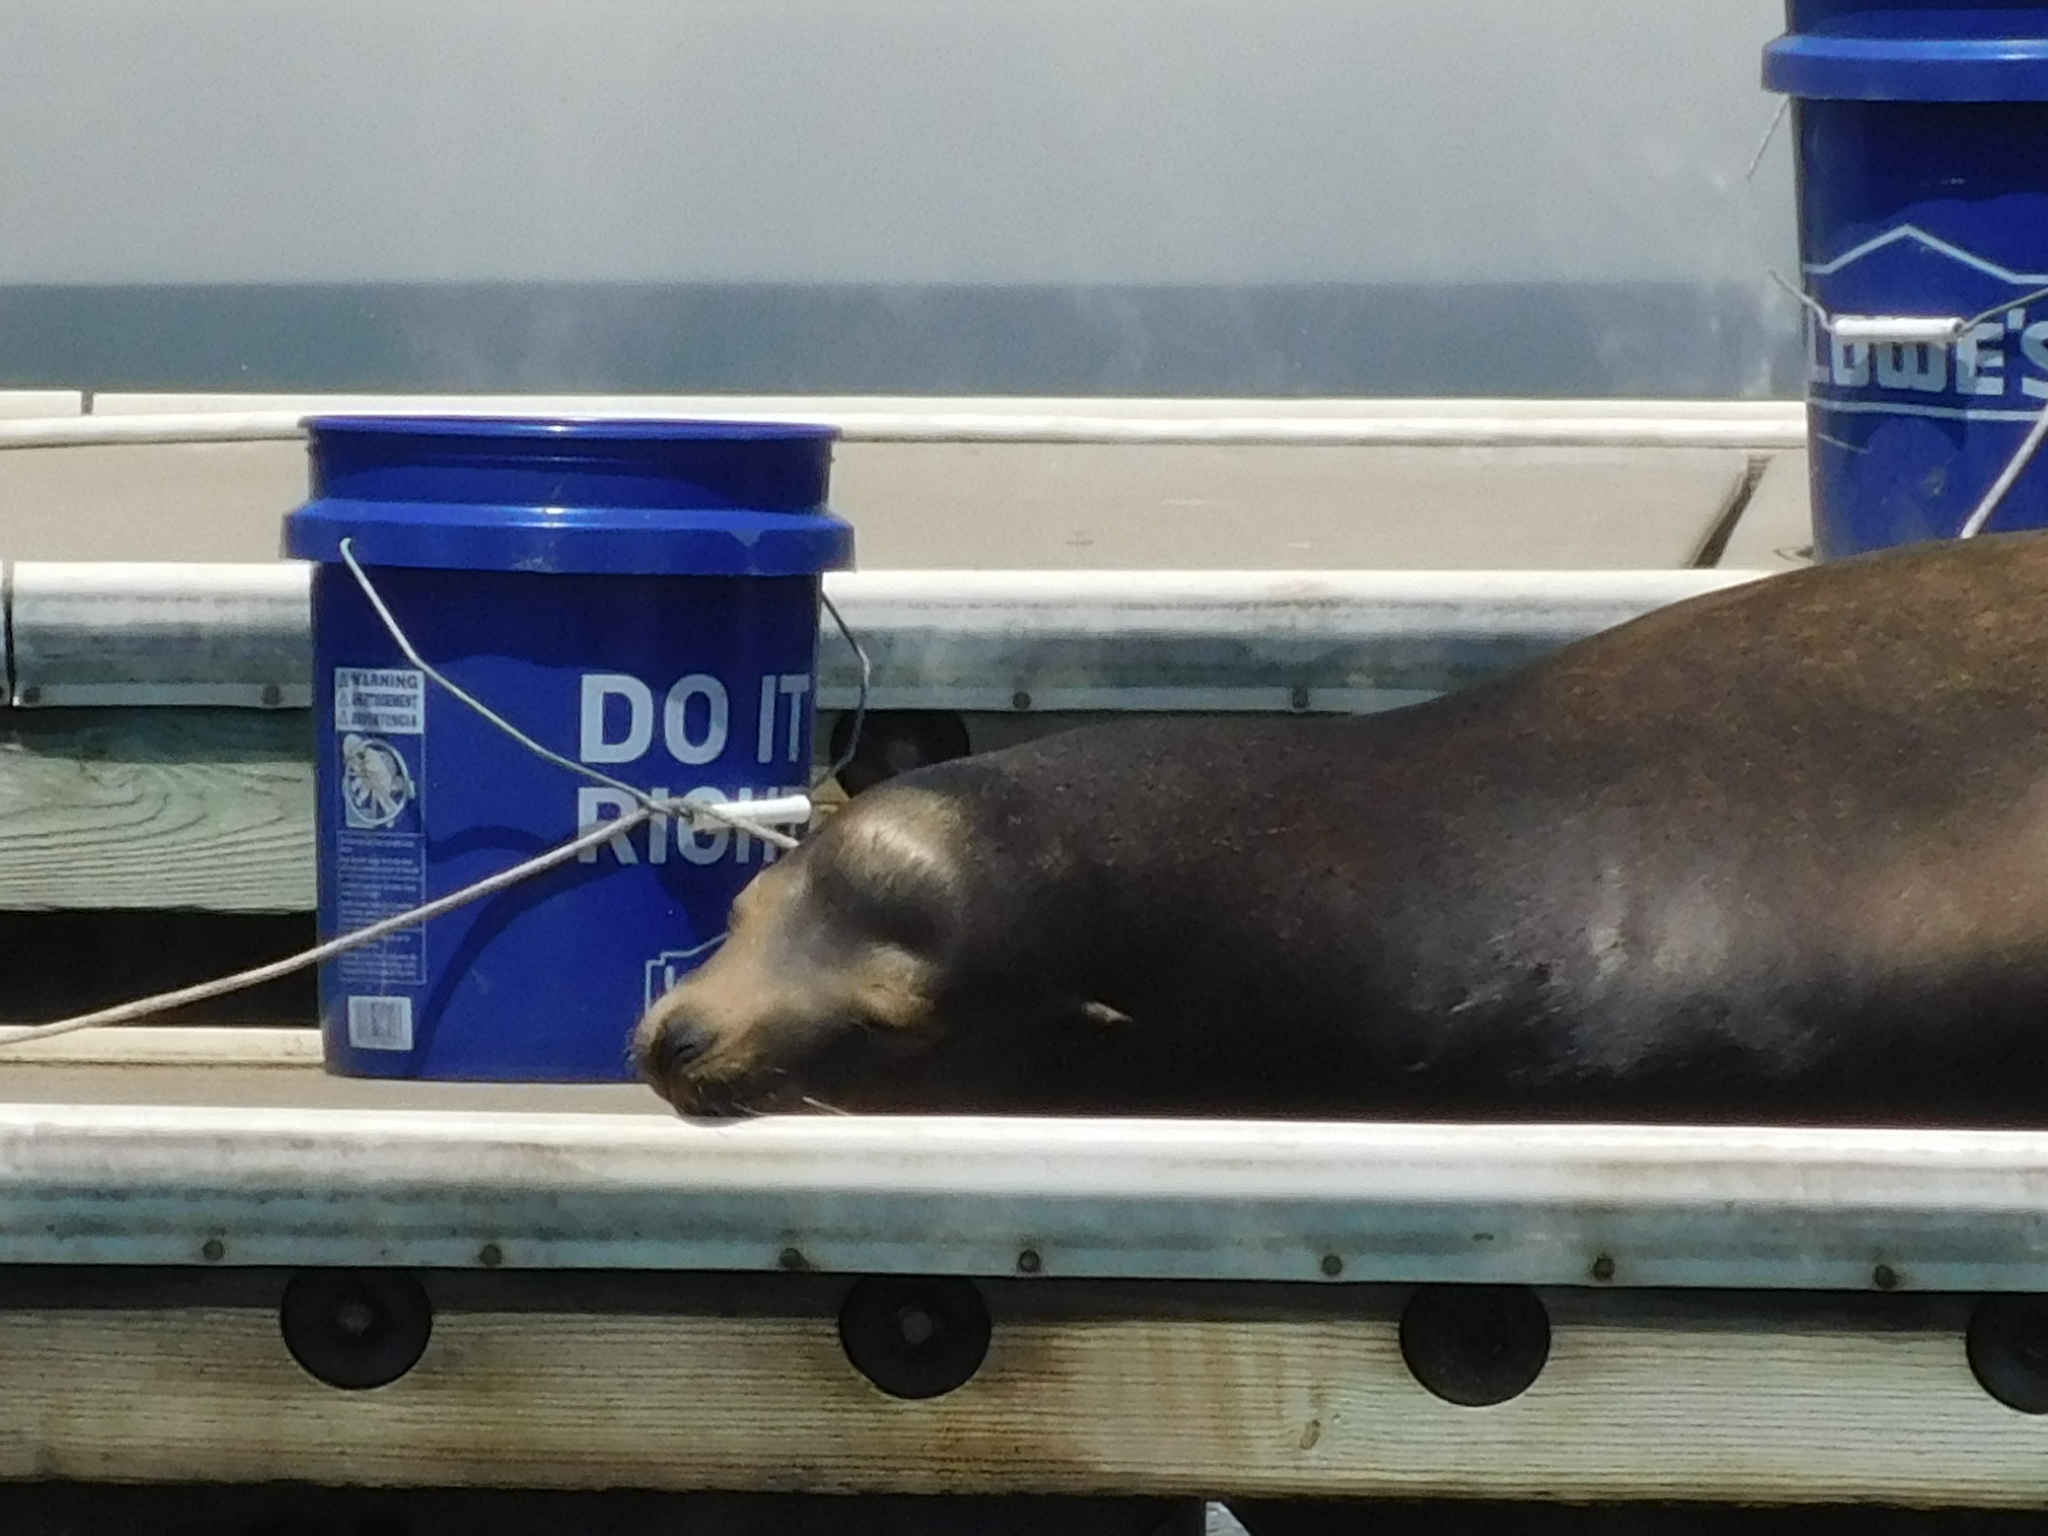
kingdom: Animalia
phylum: Chordata
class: Mammalia
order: Carnivora
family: Otariidae
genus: Zalophus
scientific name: Zalophus californianus
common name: California sea lion
